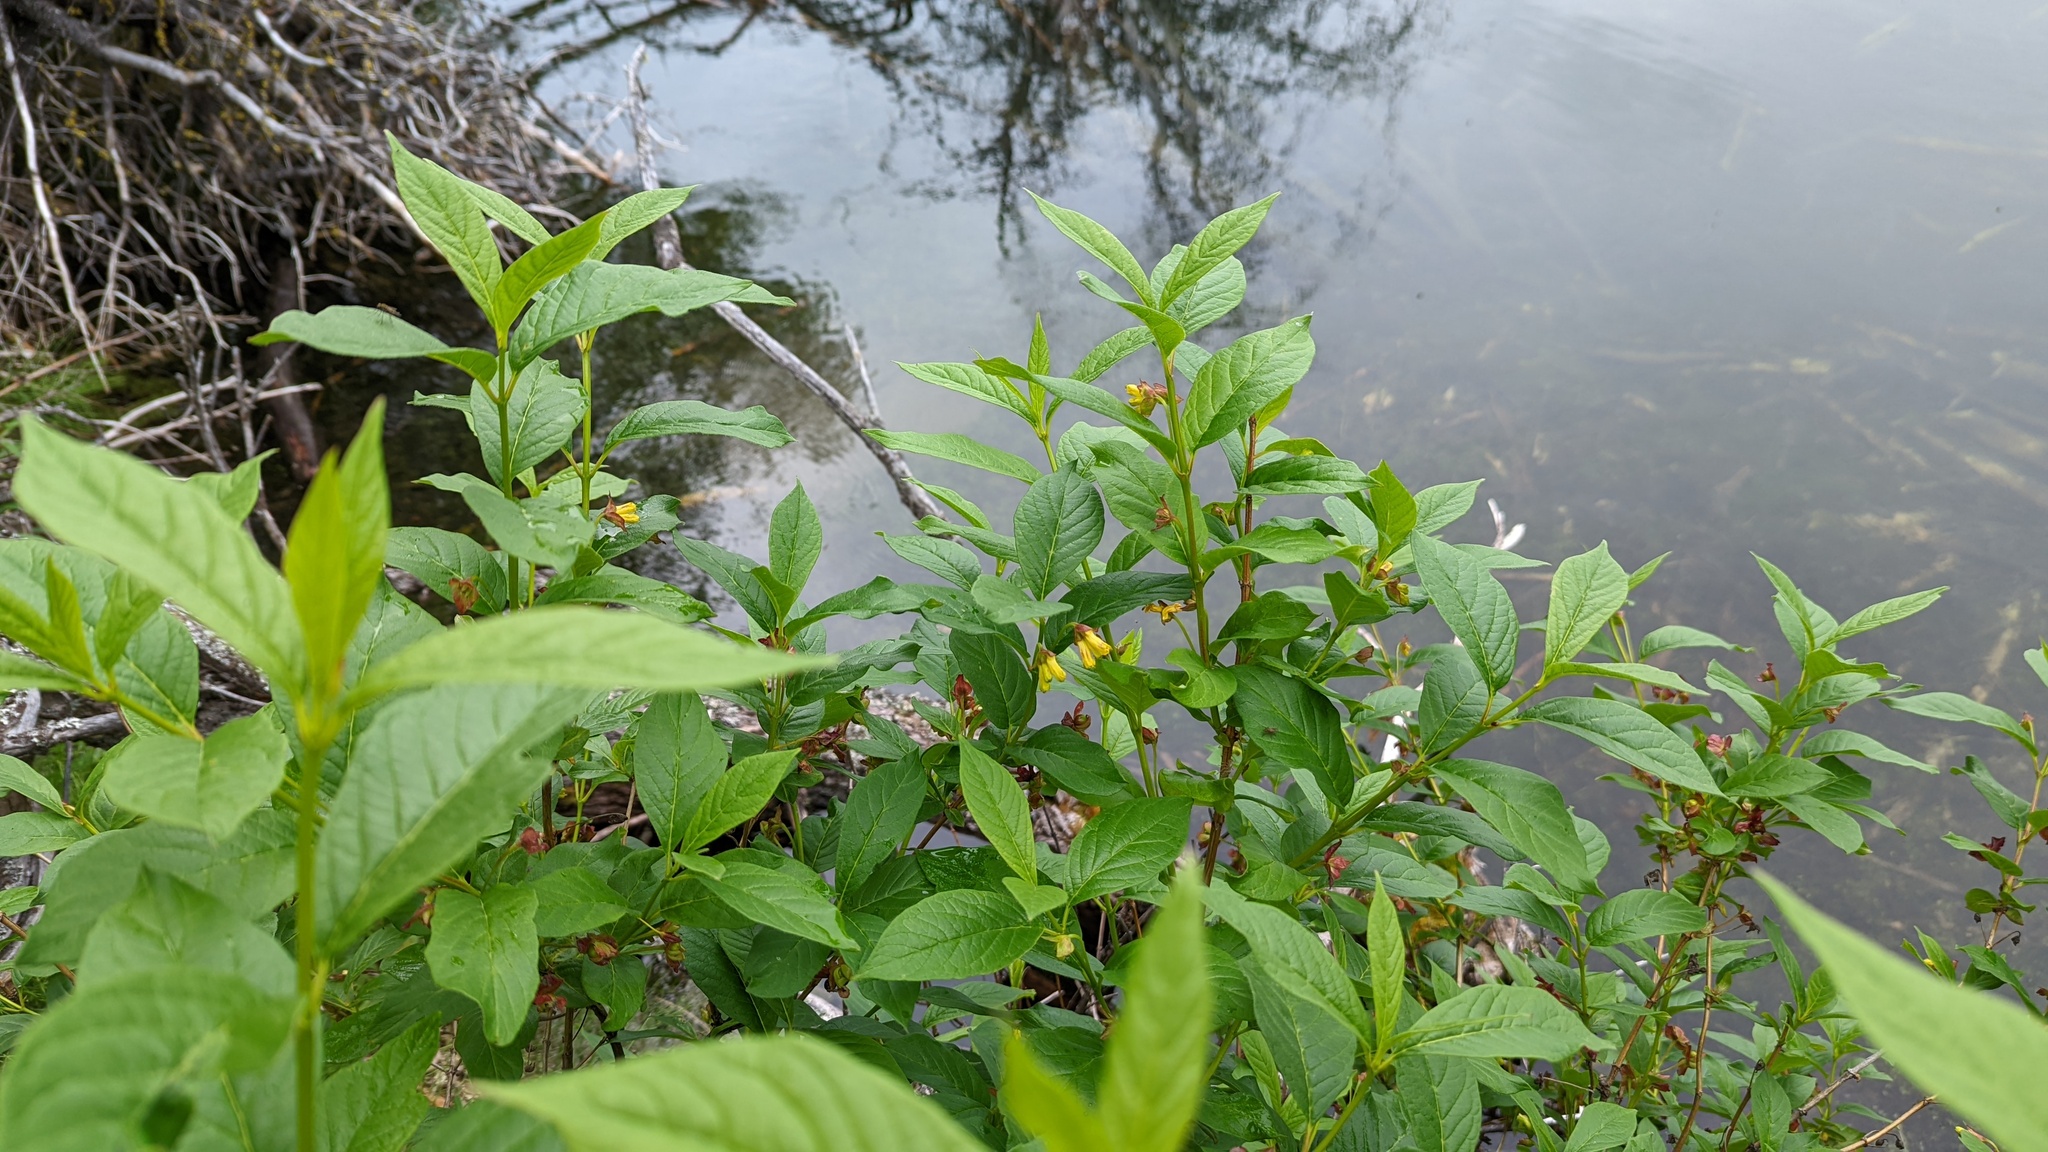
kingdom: Plantae
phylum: Tracheophyta
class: Magnoliopsida
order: Dipsacales
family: Caprifoliaceae
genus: Lonicera
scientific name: Lonicera involucrata
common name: Californian honeysuckle
